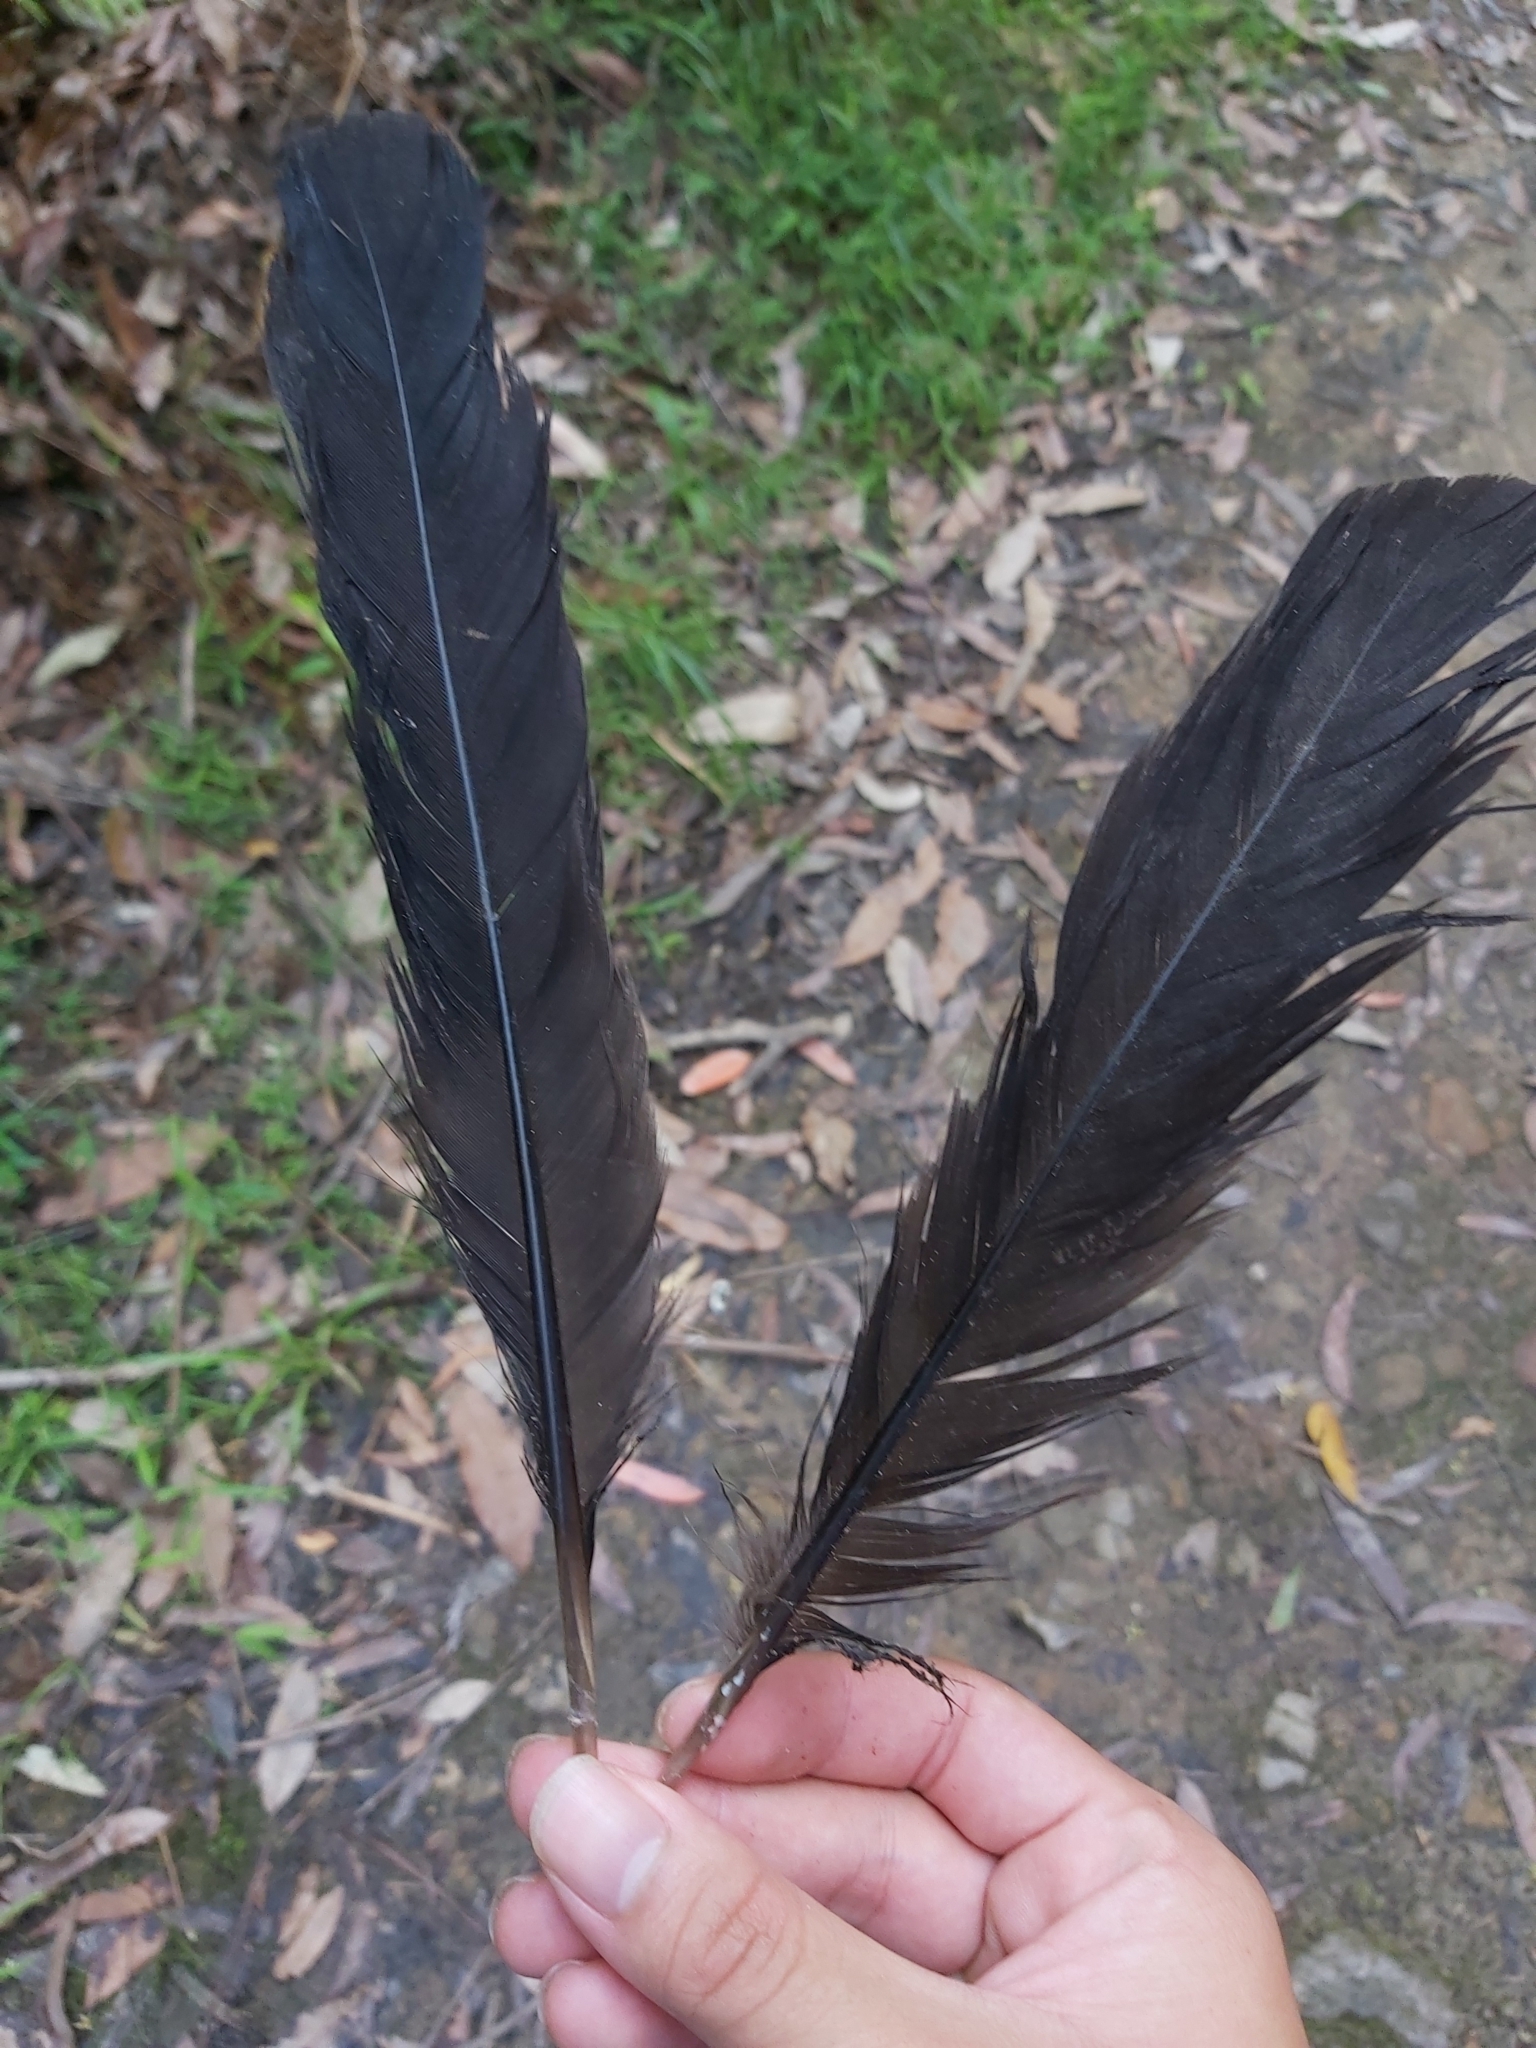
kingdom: Animalia
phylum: Chordata
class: Aves
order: Galliformes
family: Megapodiidae
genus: Alectura
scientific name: Alectura lathami
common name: Australian brushturkey
